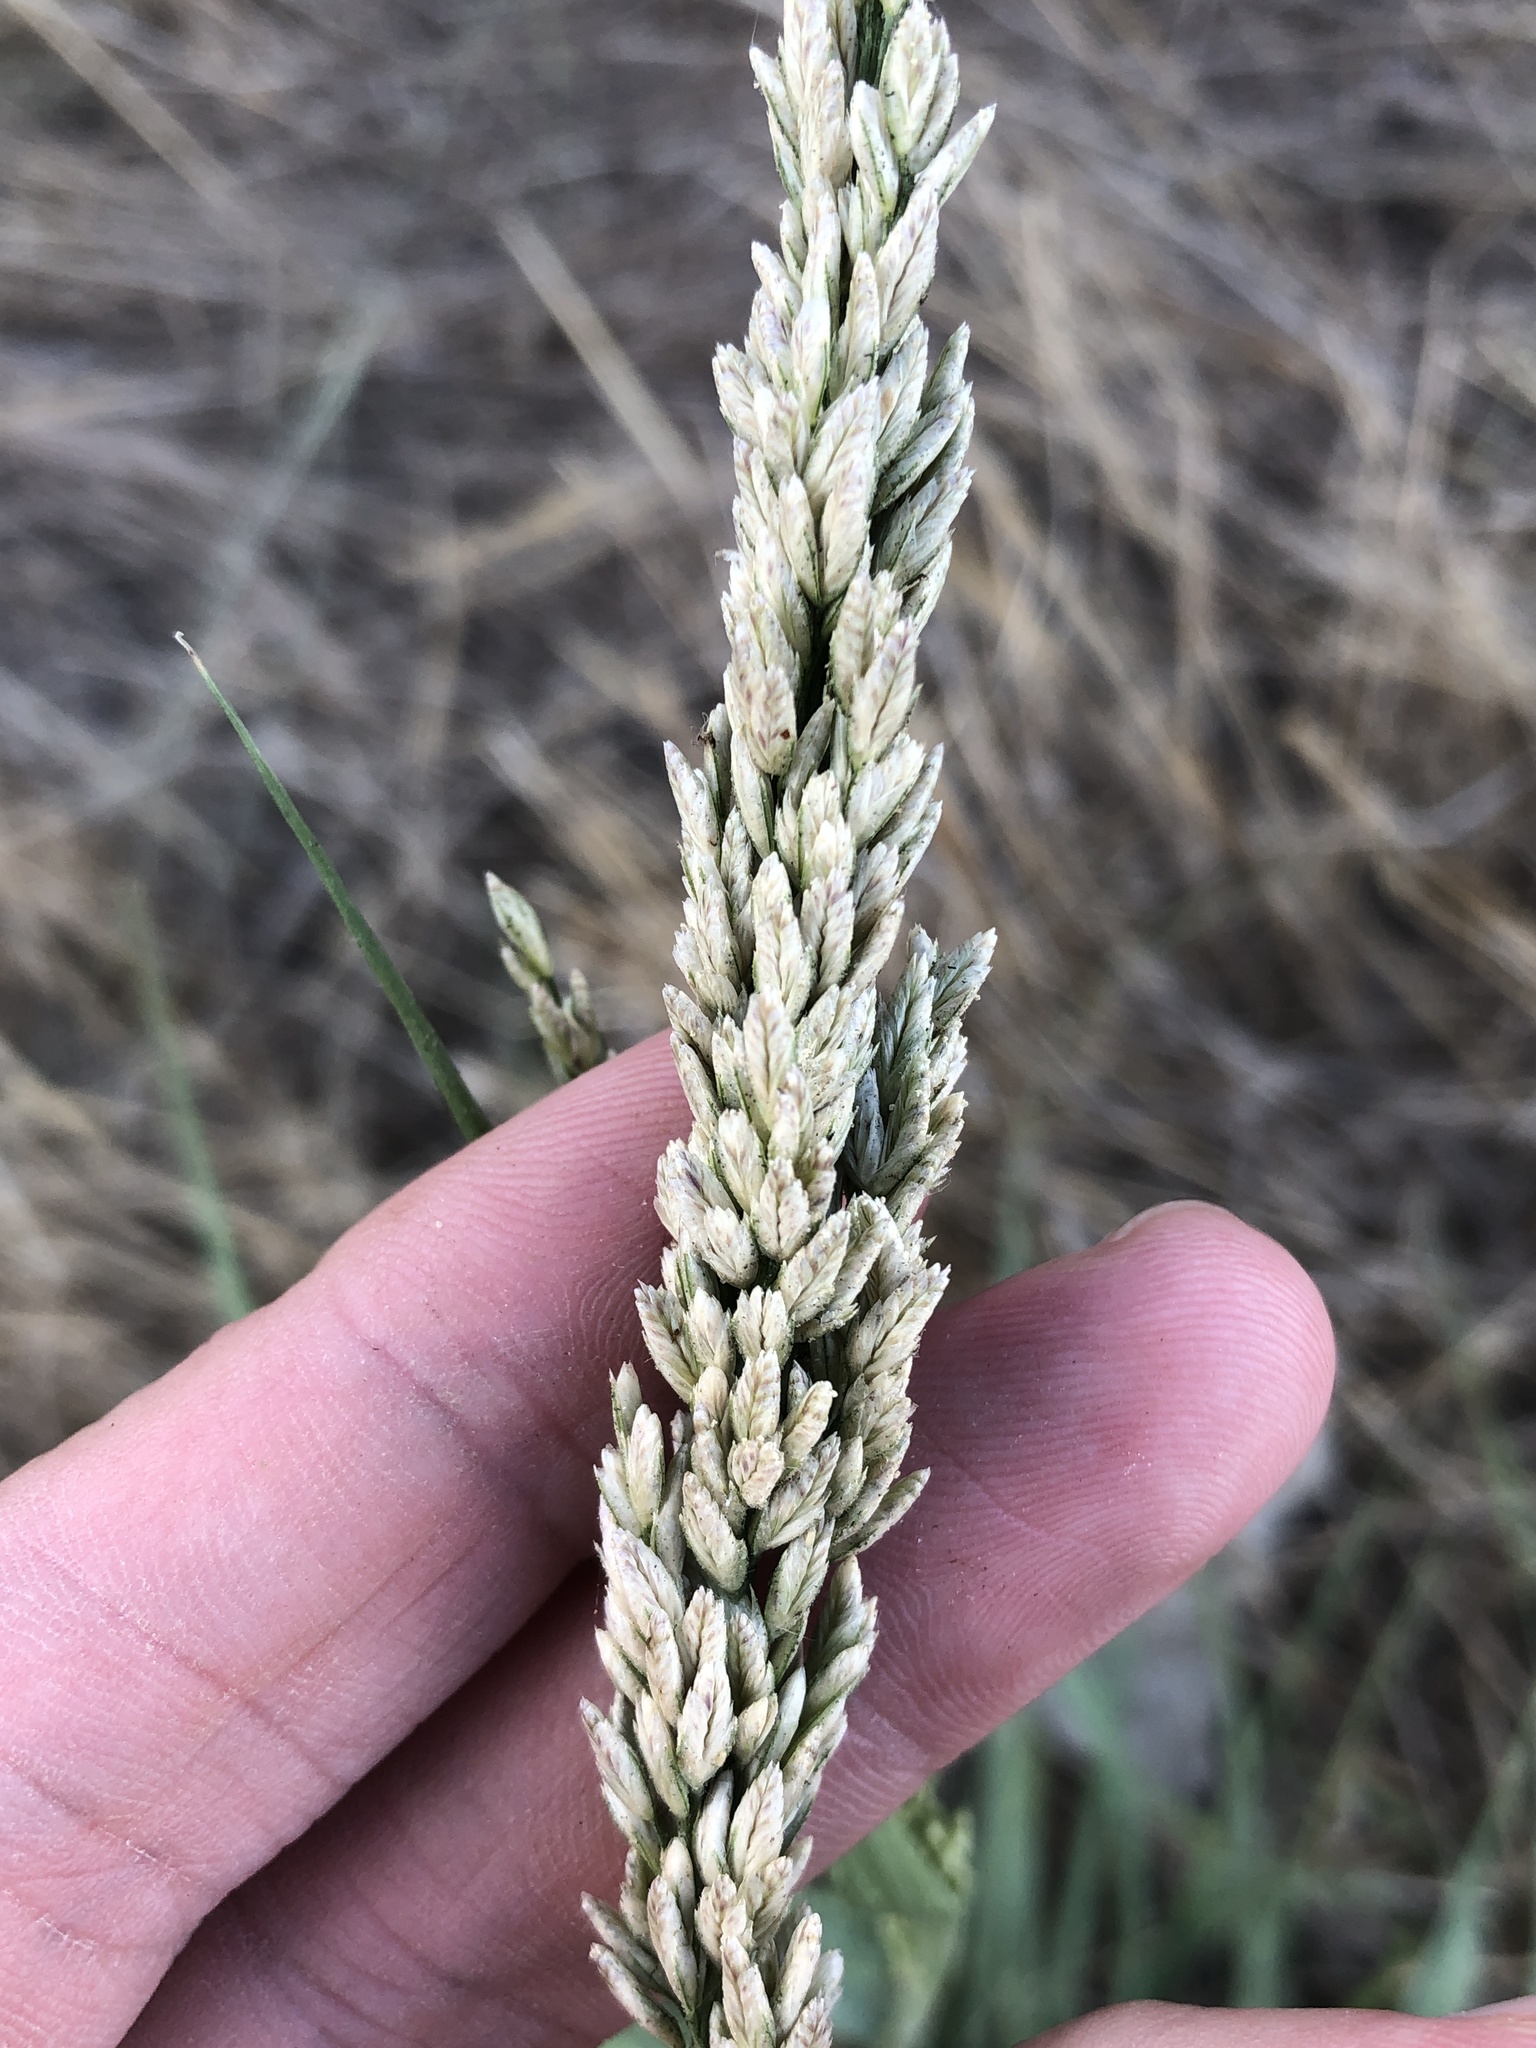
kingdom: Plantae
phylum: Tracheophyta
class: Liliopsida
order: Poales
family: Poaceae
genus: Tridens
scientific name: Tridens albescens
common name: White tridens
